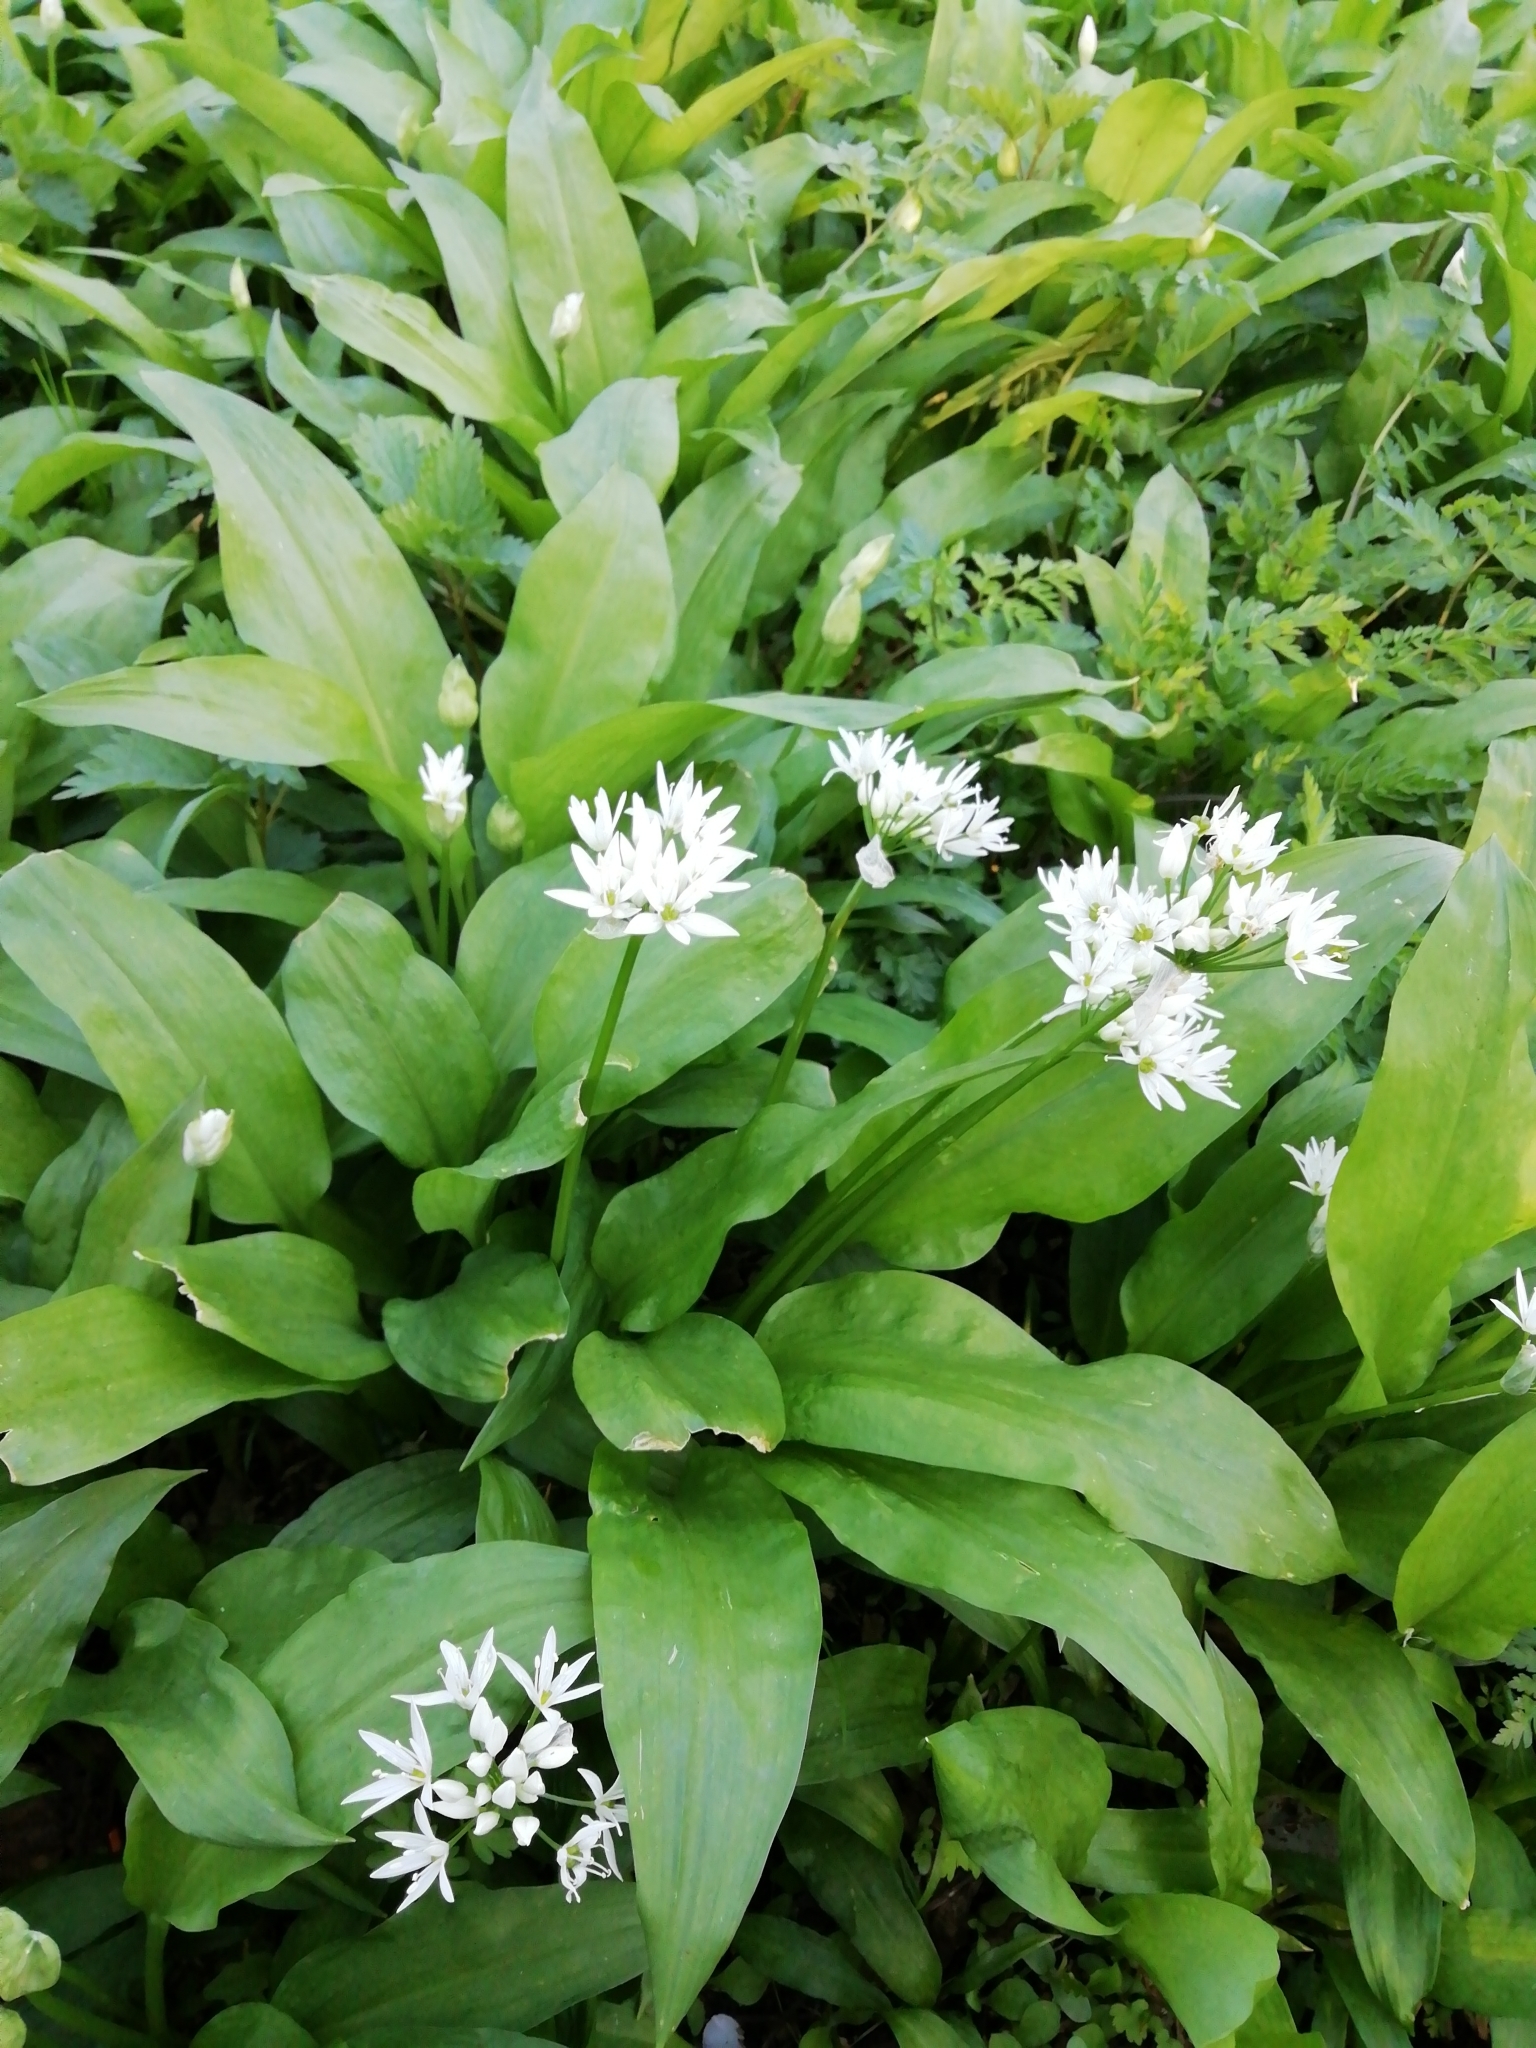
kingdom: Plantae
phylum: Tracheophyta
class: Liliopsida
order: Asparagales
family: Amaryllidaceae
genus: Allium
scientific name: Allium ursinum
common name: Ramsons
